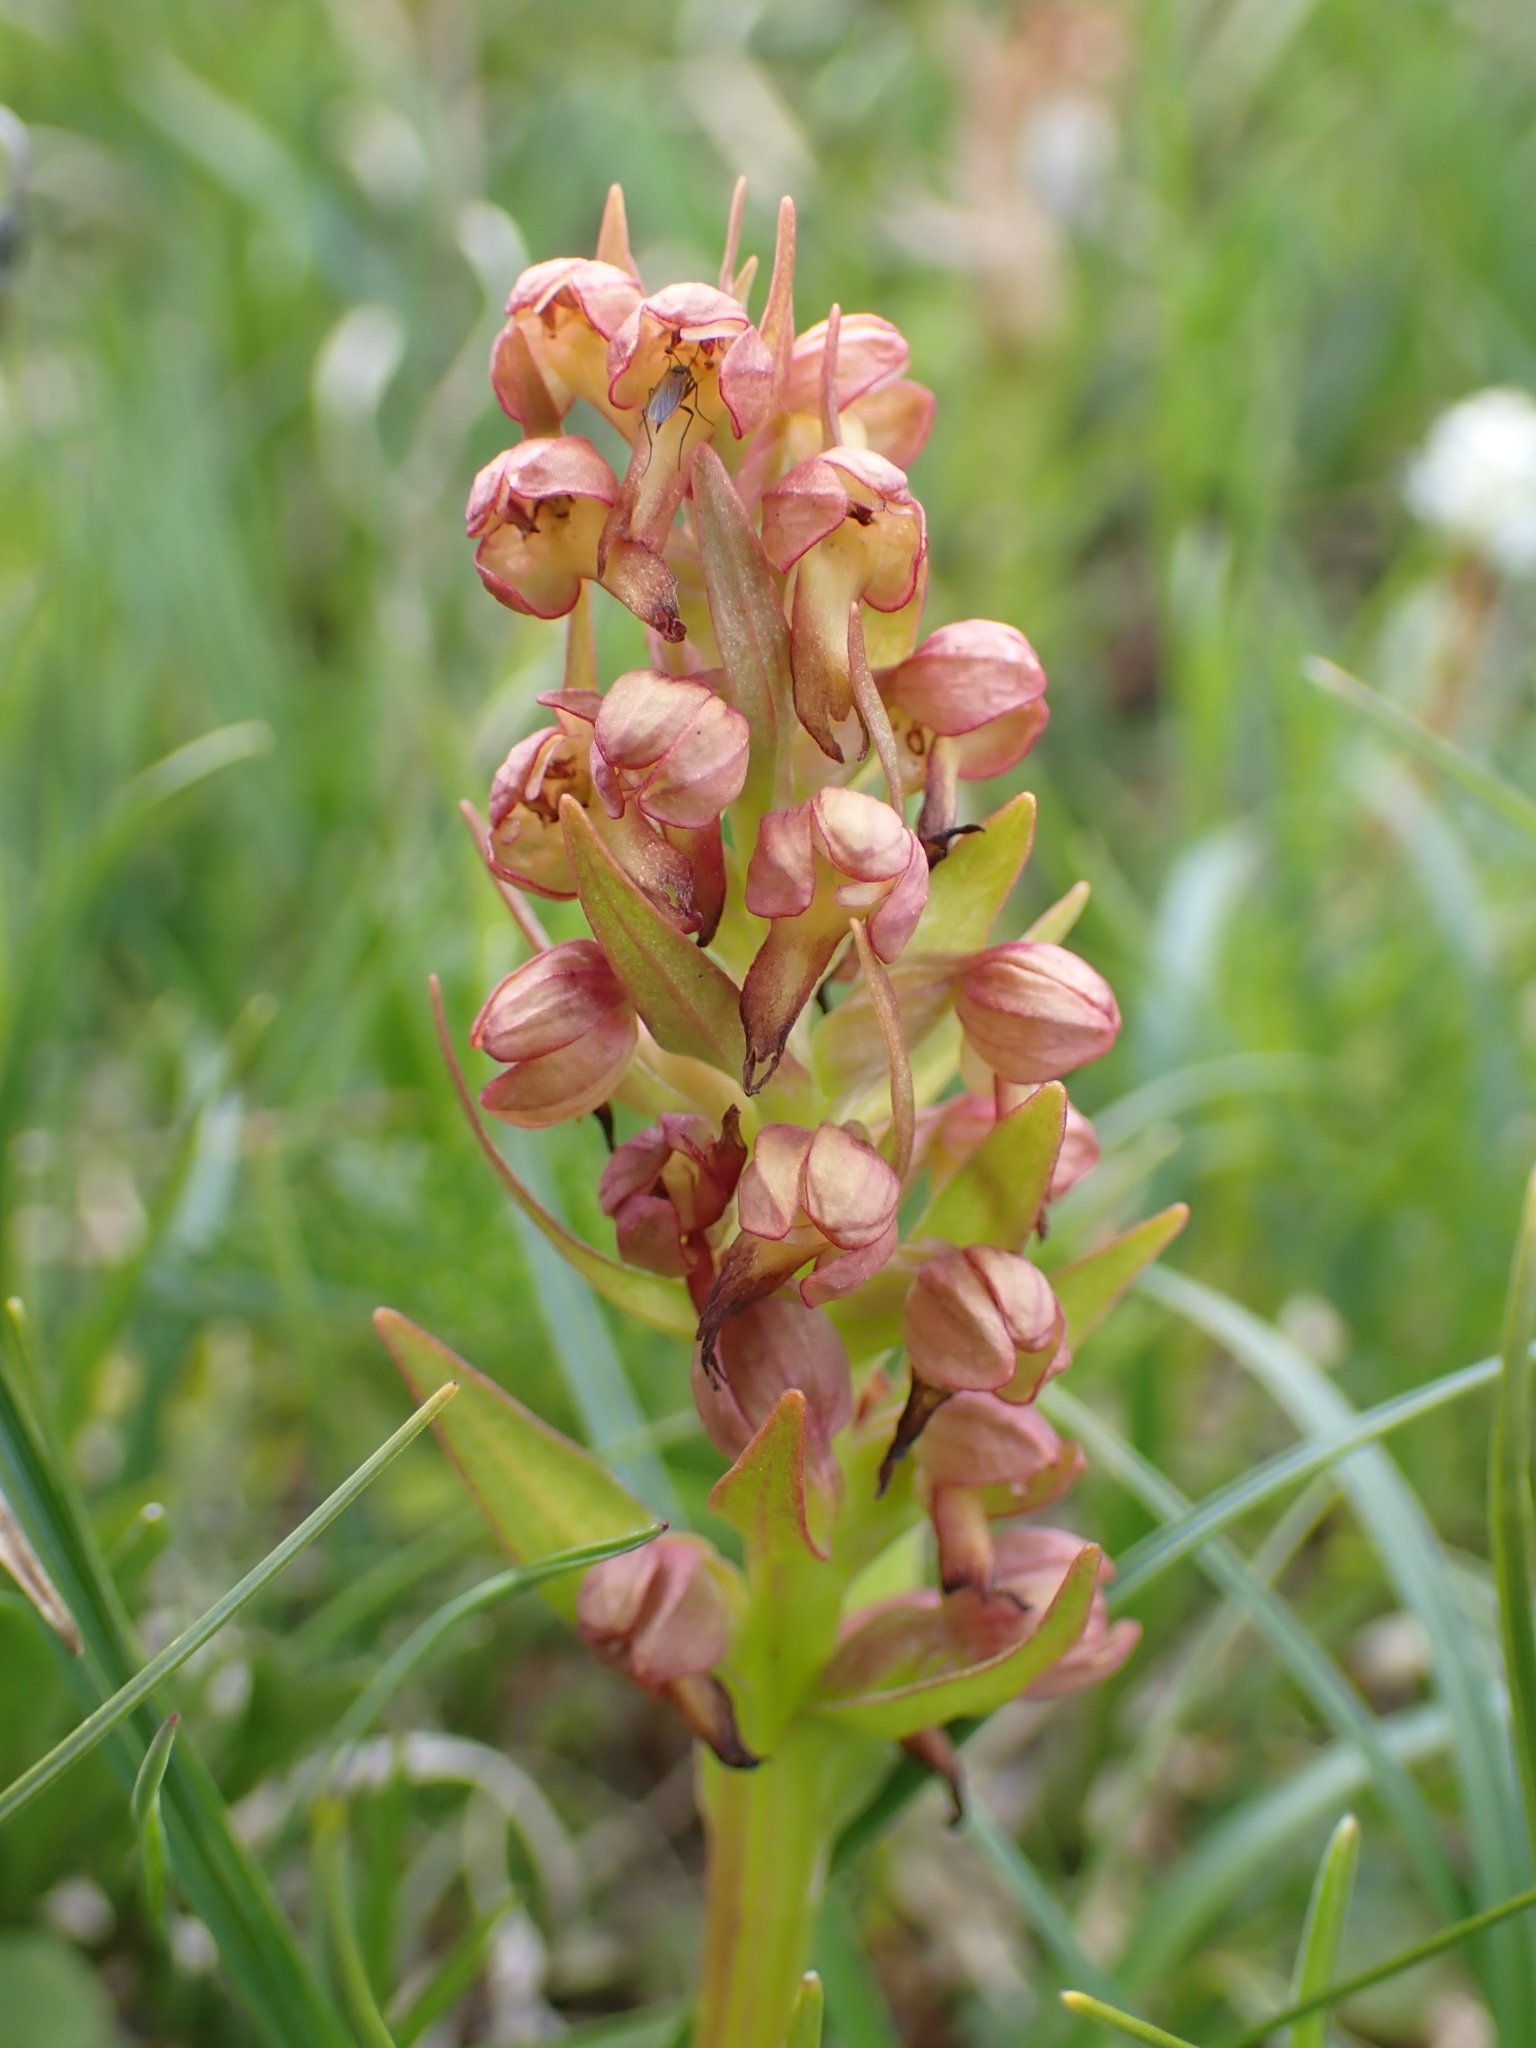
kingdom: Plantae
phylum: Tracheophyta
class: Liliopsida
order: Asparagales
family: Orchidaceae
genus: Dactylorhiza
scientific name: Dactylorhiza viridis
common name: Longbract frog orchid
